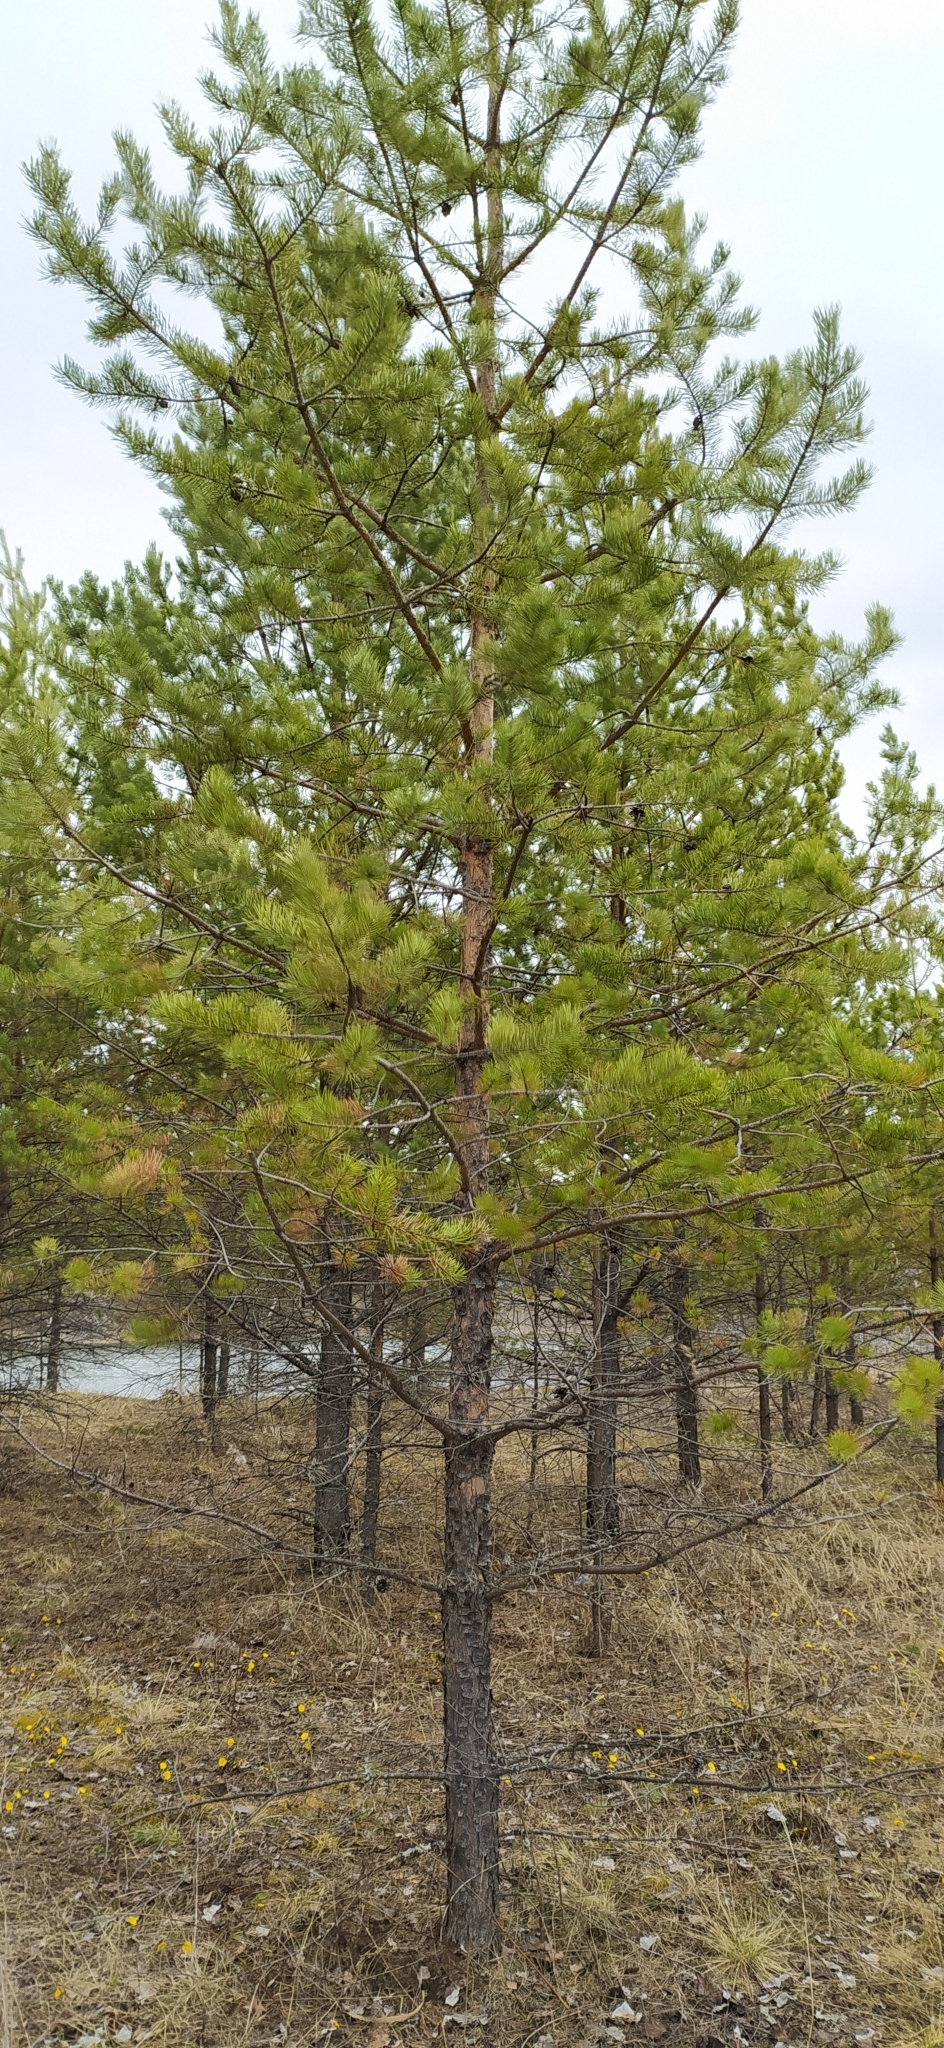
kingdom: Plantae
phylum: Tracheophyta
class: Pinopsida
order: Pinales
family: Pinaceae
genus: Pinus
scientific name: Pinus sylvestris
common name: Scots pine
